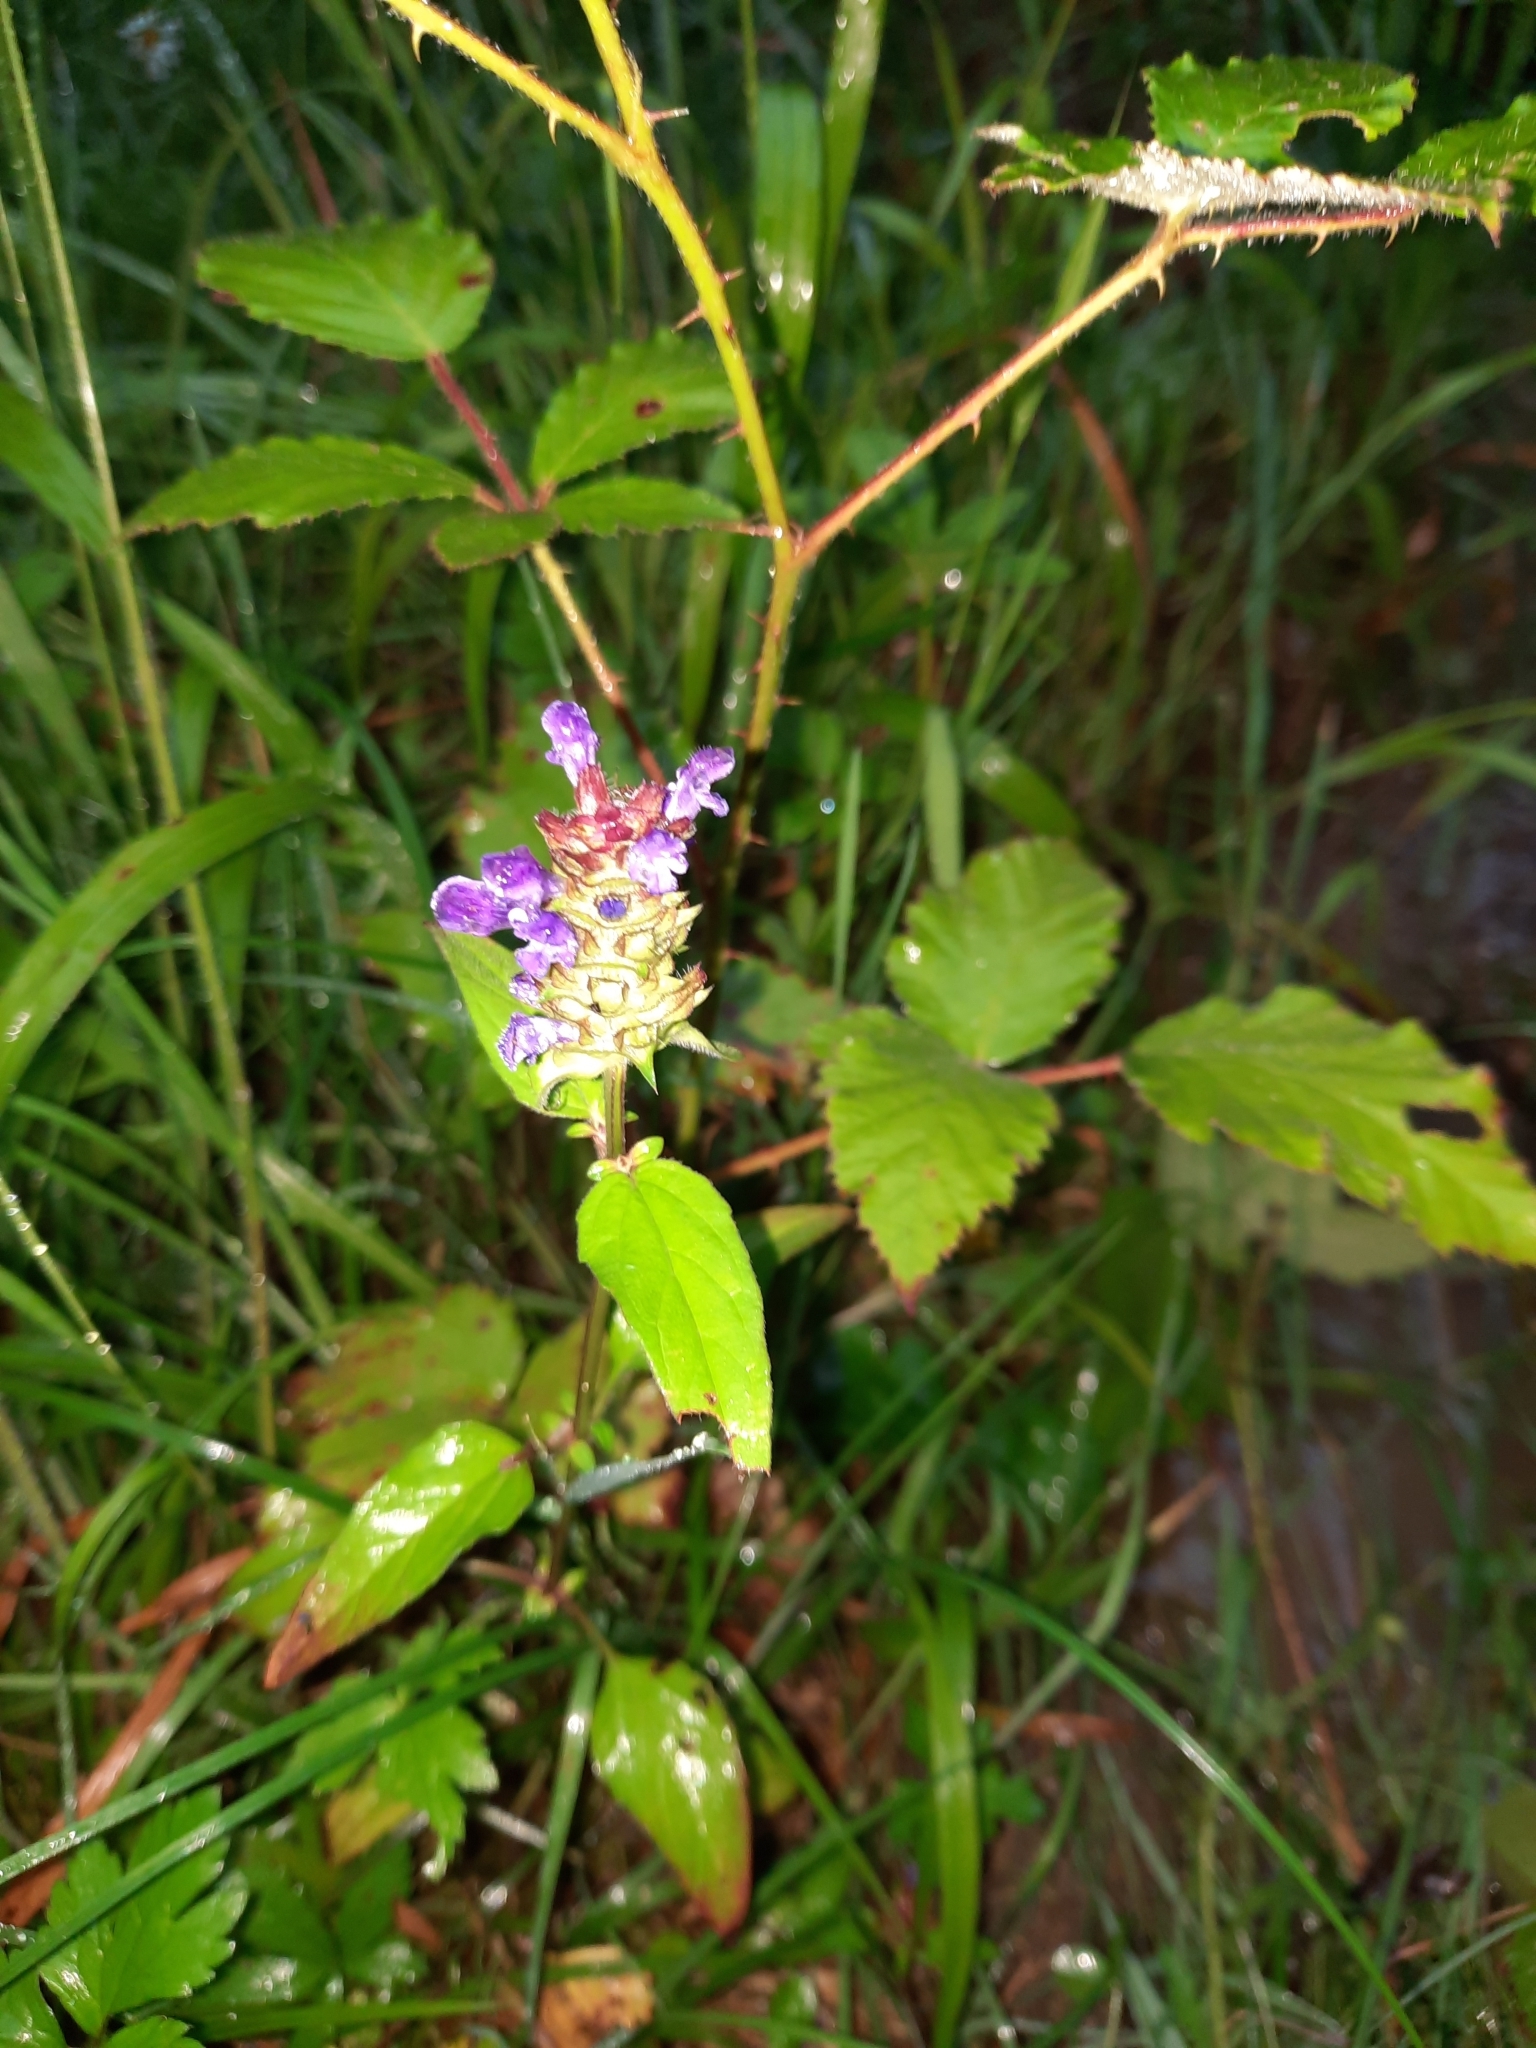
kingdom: Plantae
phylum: Tracheophyta
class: Magnoliopsida
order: Lamiales
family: Lamiaceae
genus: Prunella
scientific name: Prunella vulgaris
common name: Heal-all
